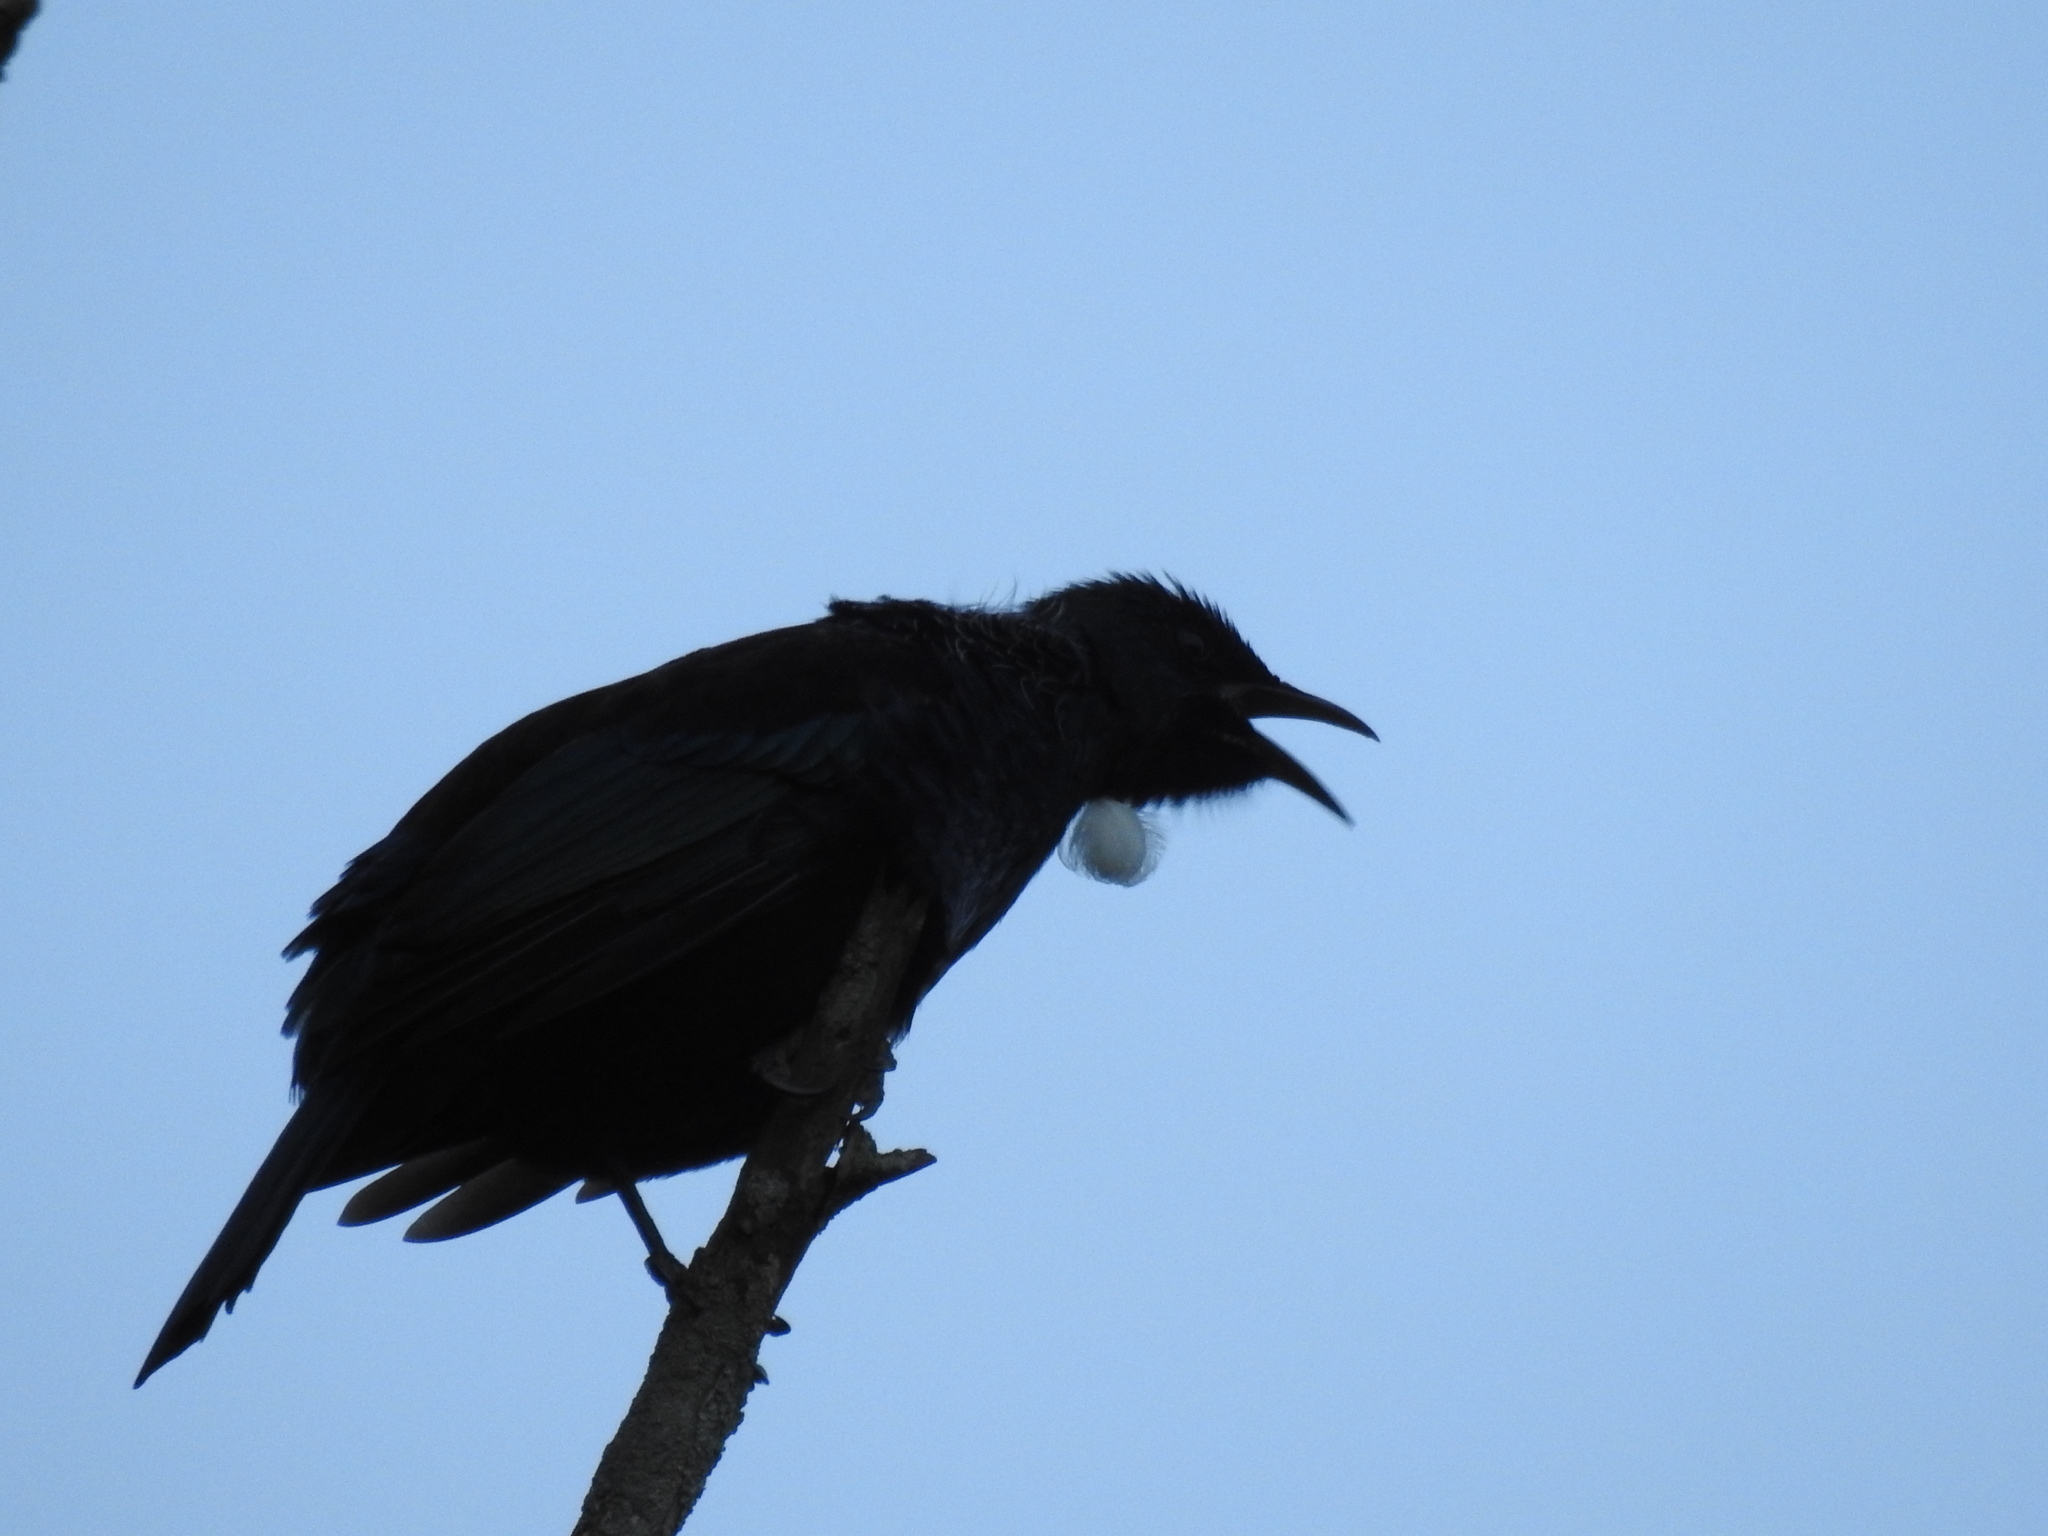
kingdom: Animalia
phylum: Chordata
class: Aves
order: Passeriformes
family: Meliphagidae
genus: Prosthemadera
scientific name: Prosthemadera novaeseelandiae
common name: Tui
